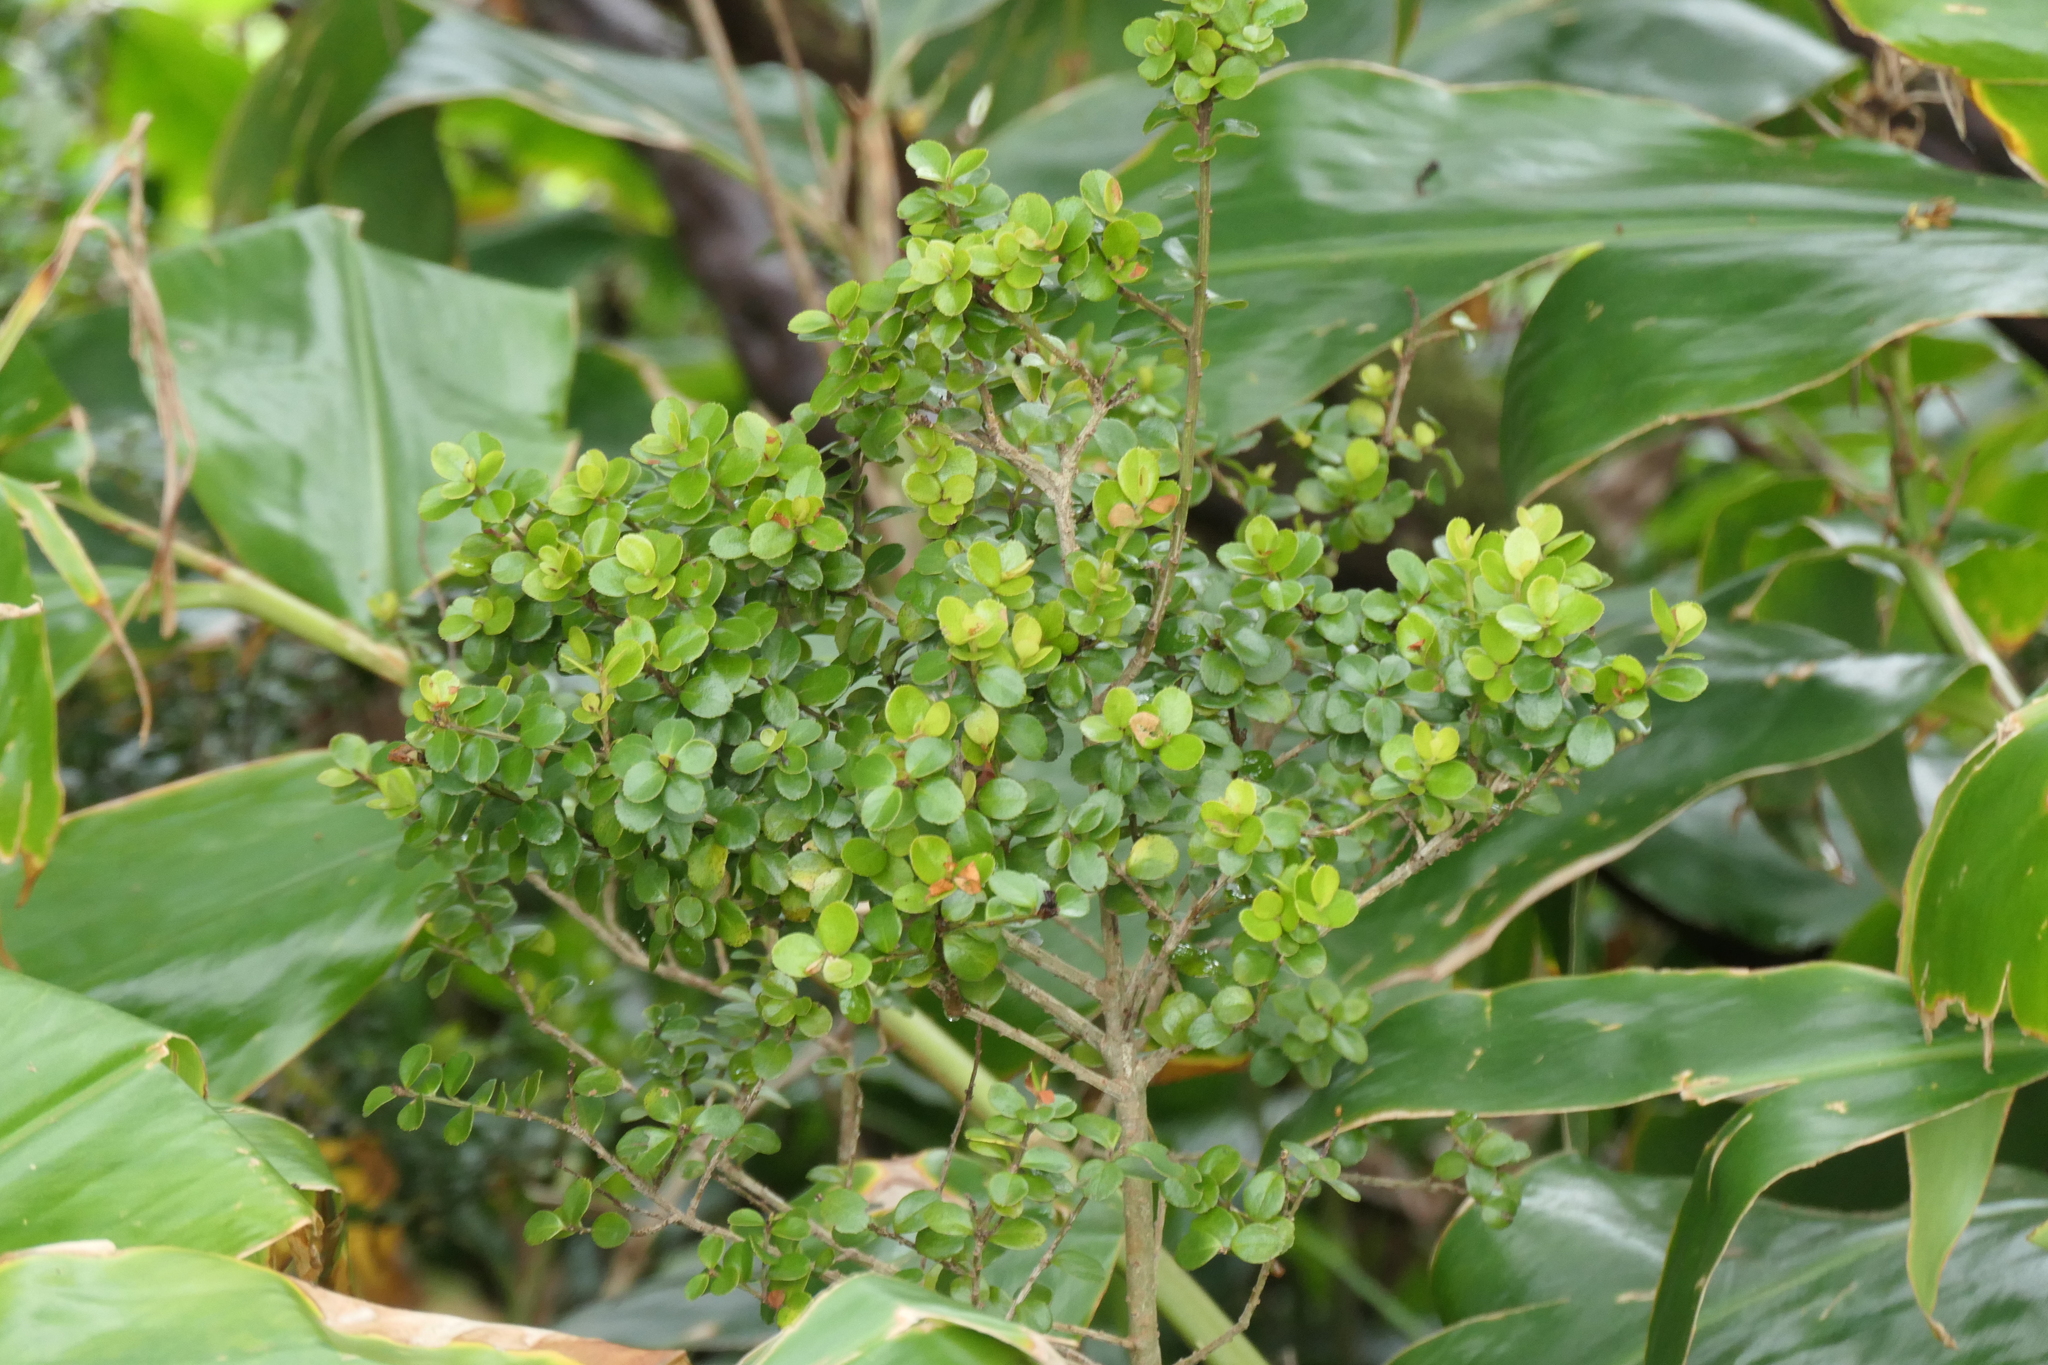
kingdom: Plantae
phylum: Tracheophyta
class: Magnoliopsida
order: Ericales
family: Primulaceae
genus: Myrsine
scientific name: Myrsine africana
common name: African-boxwood
